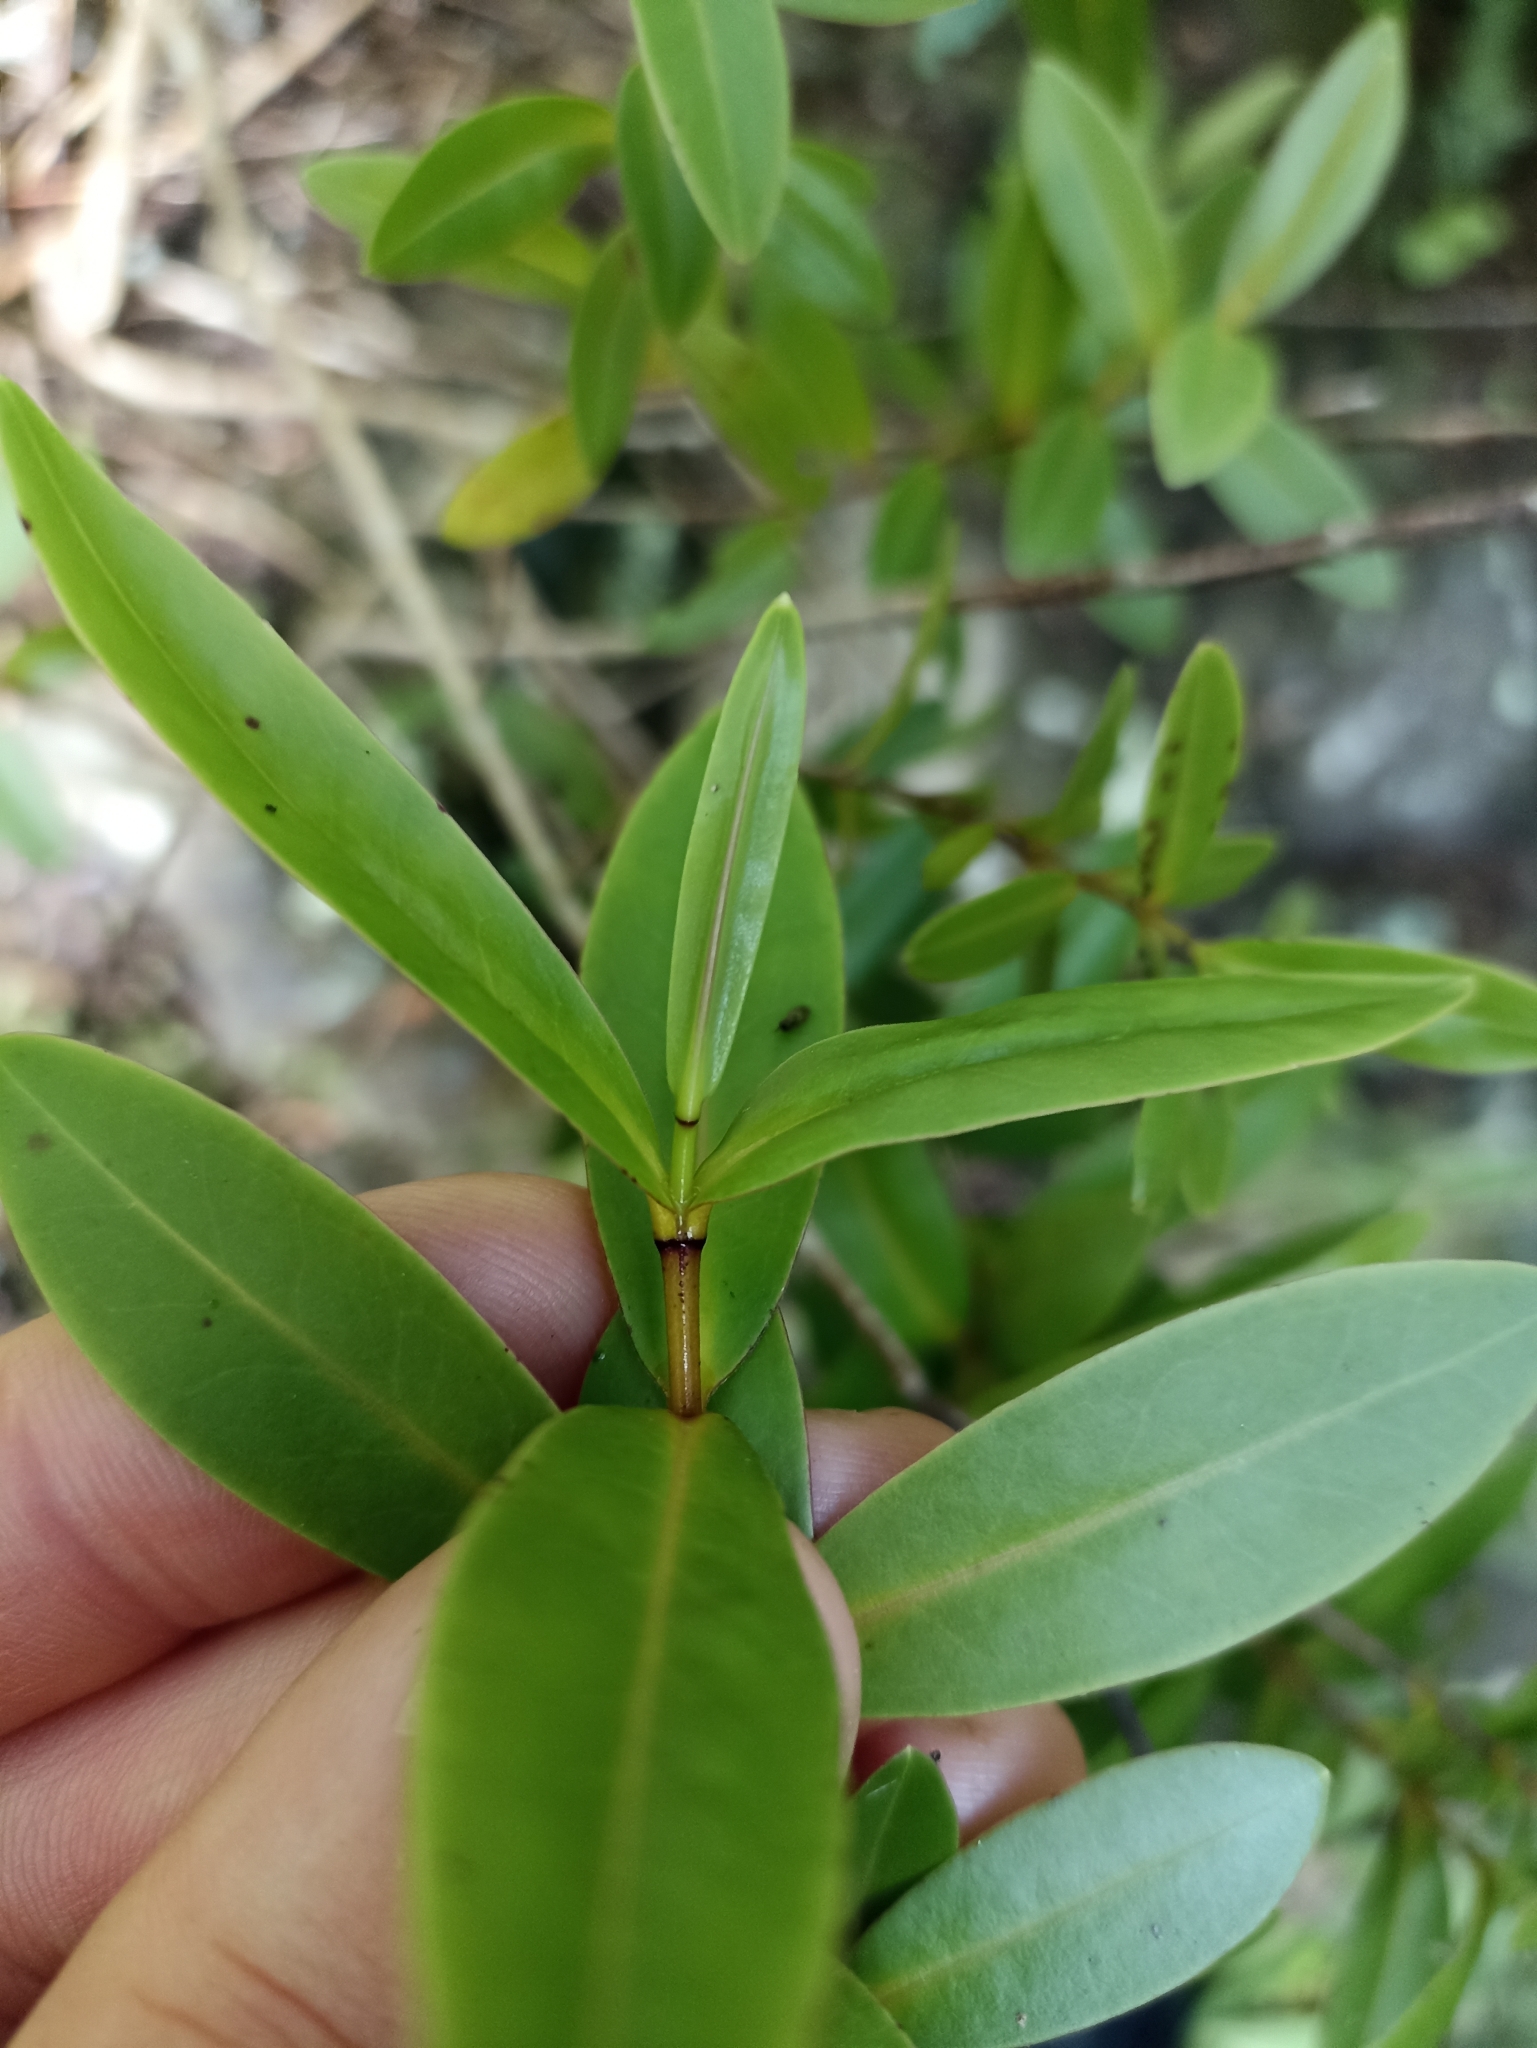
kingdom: Plantae
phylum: Tracheophyta
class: Magnoliopsida
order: Lamiales
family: Plantaginaceae
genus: Veronica
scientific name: Veronica ligustrifolia
